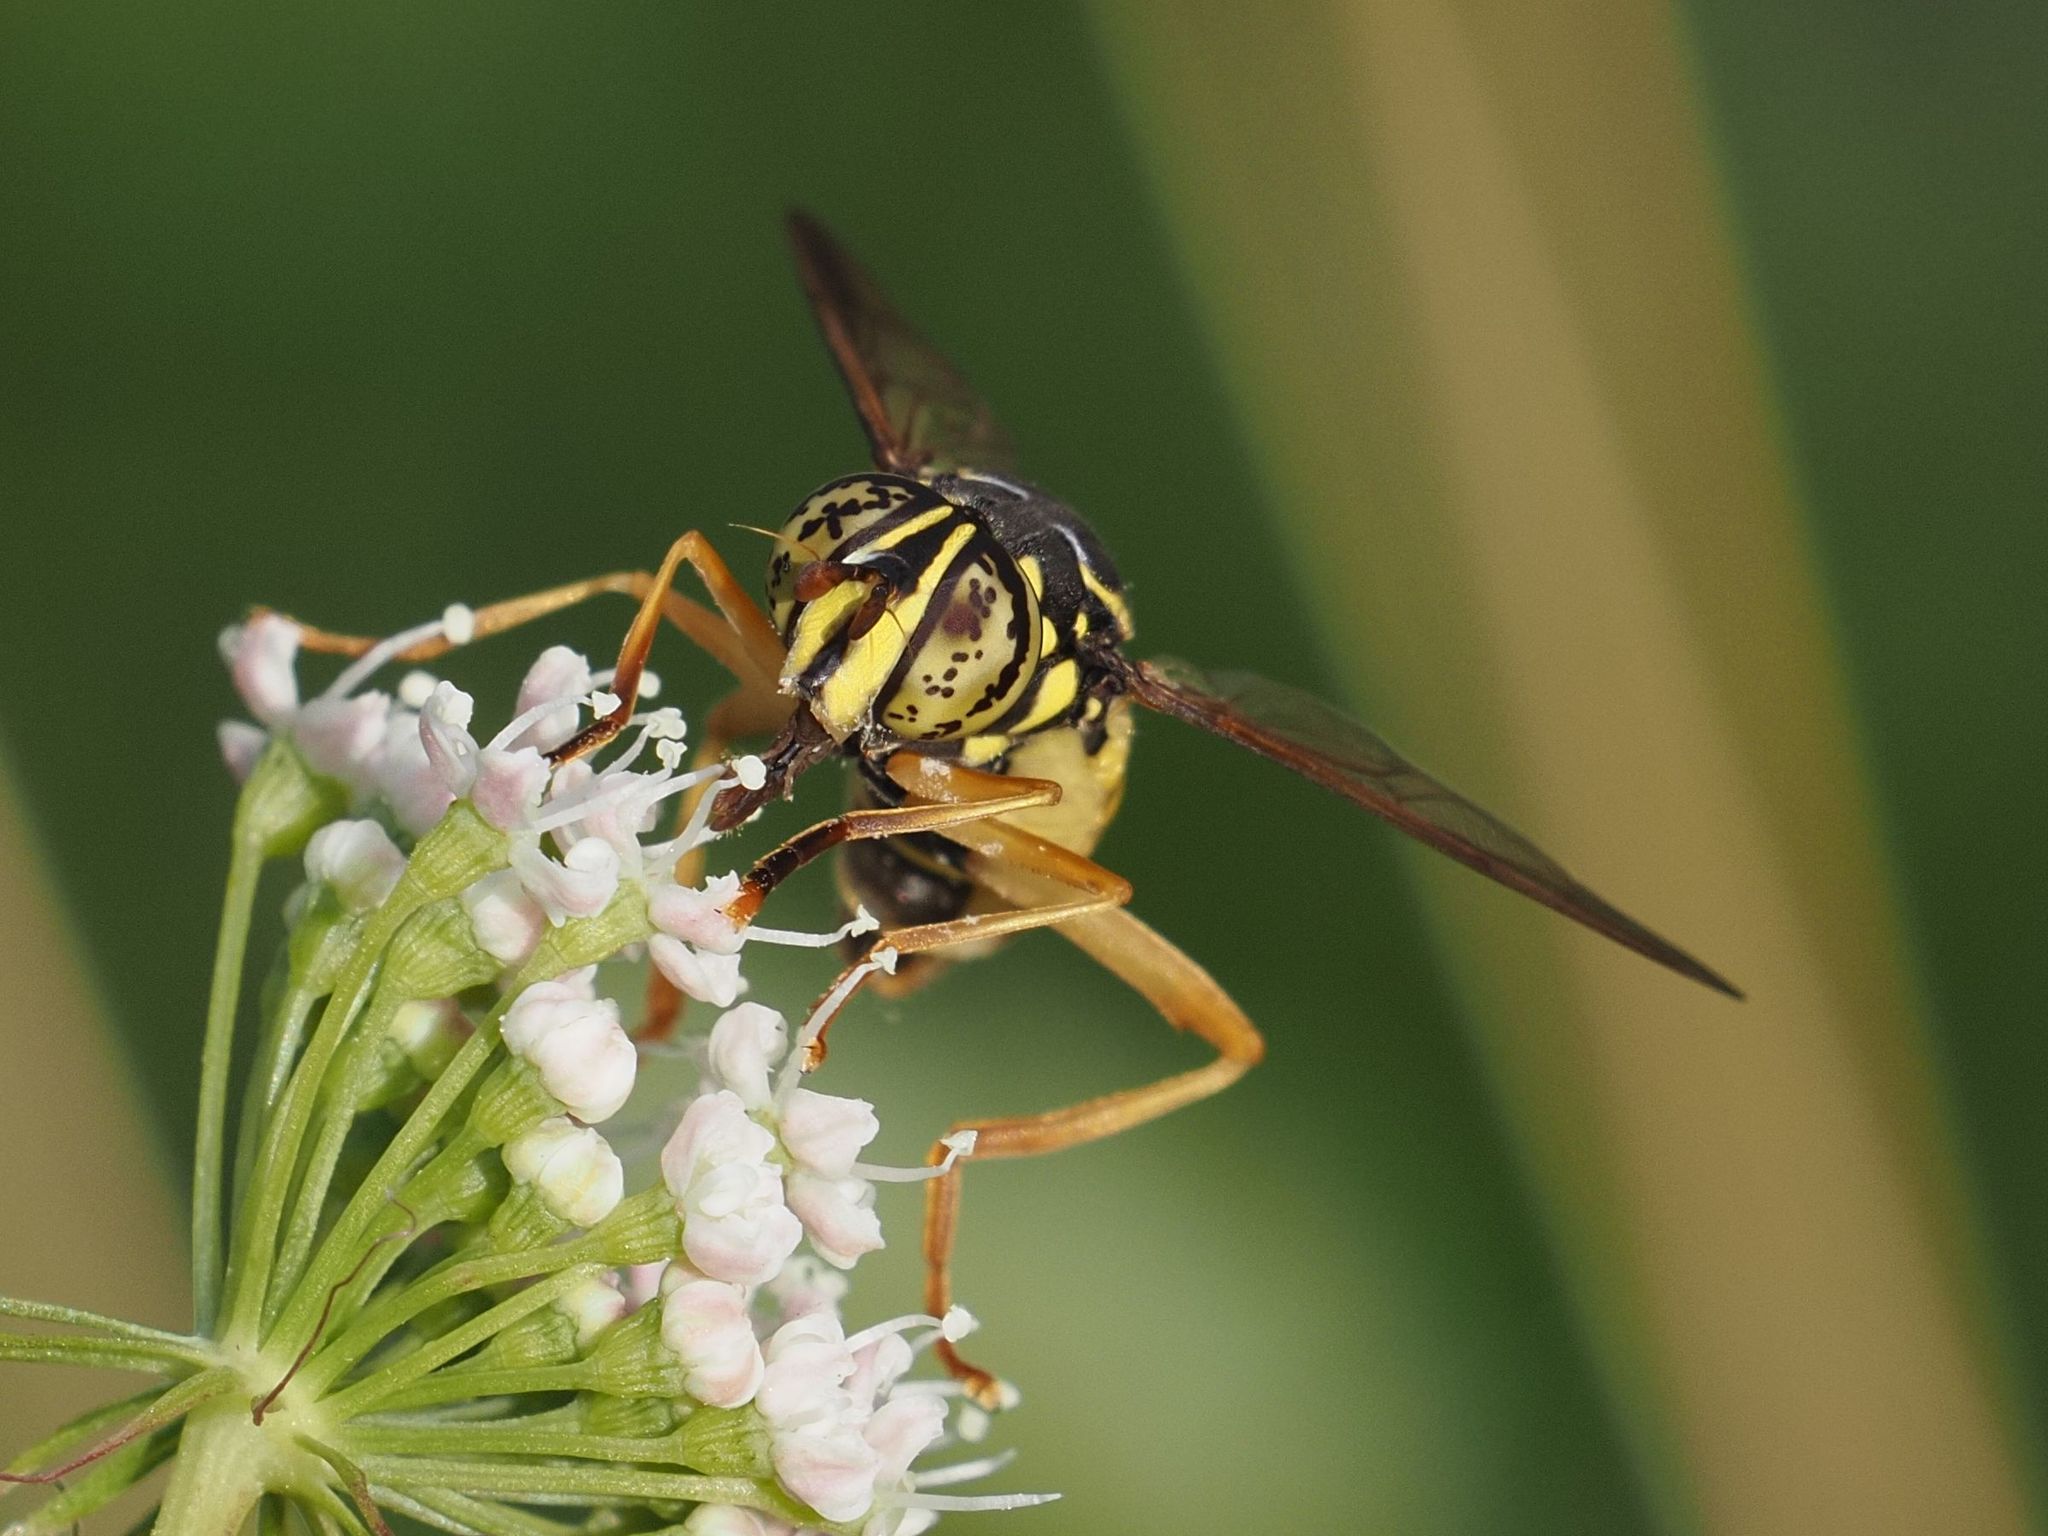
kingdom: Animalia
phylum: Arthropoda
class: Insecta
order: Diptera
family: Syrphidae
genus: Spilomyia
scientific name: Spilomyia saltuum
